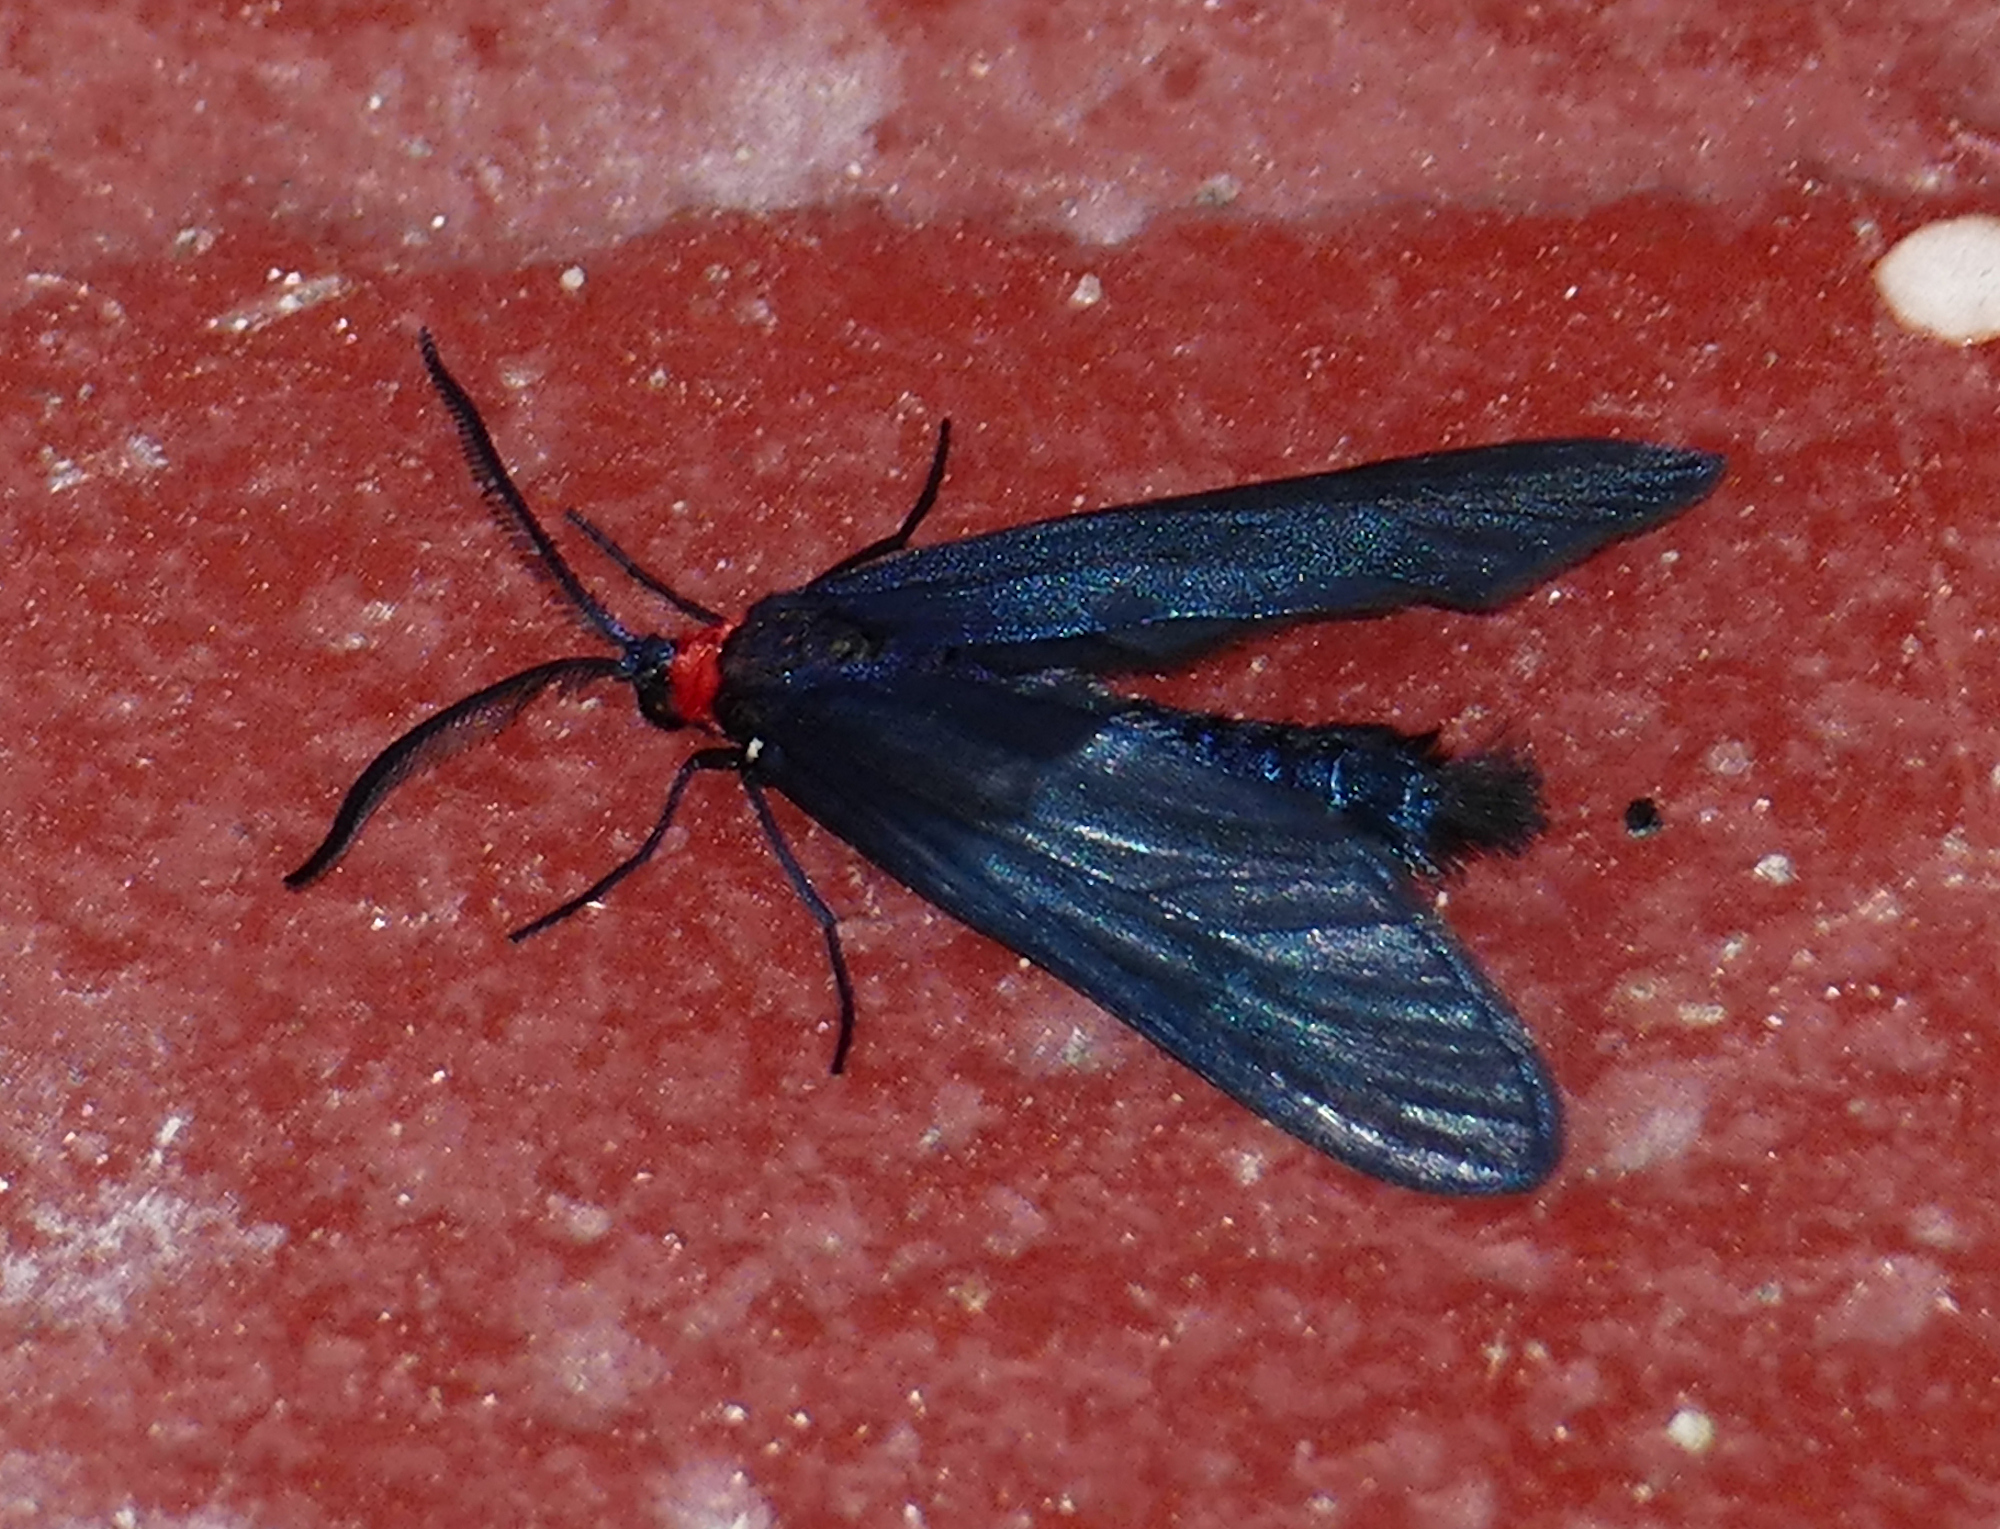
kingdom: Animalia
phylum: Arthropoda
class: Insecta
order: Lepidoptera
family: Zygaenidae
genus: Harrisina
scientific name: Harrisina metallica
